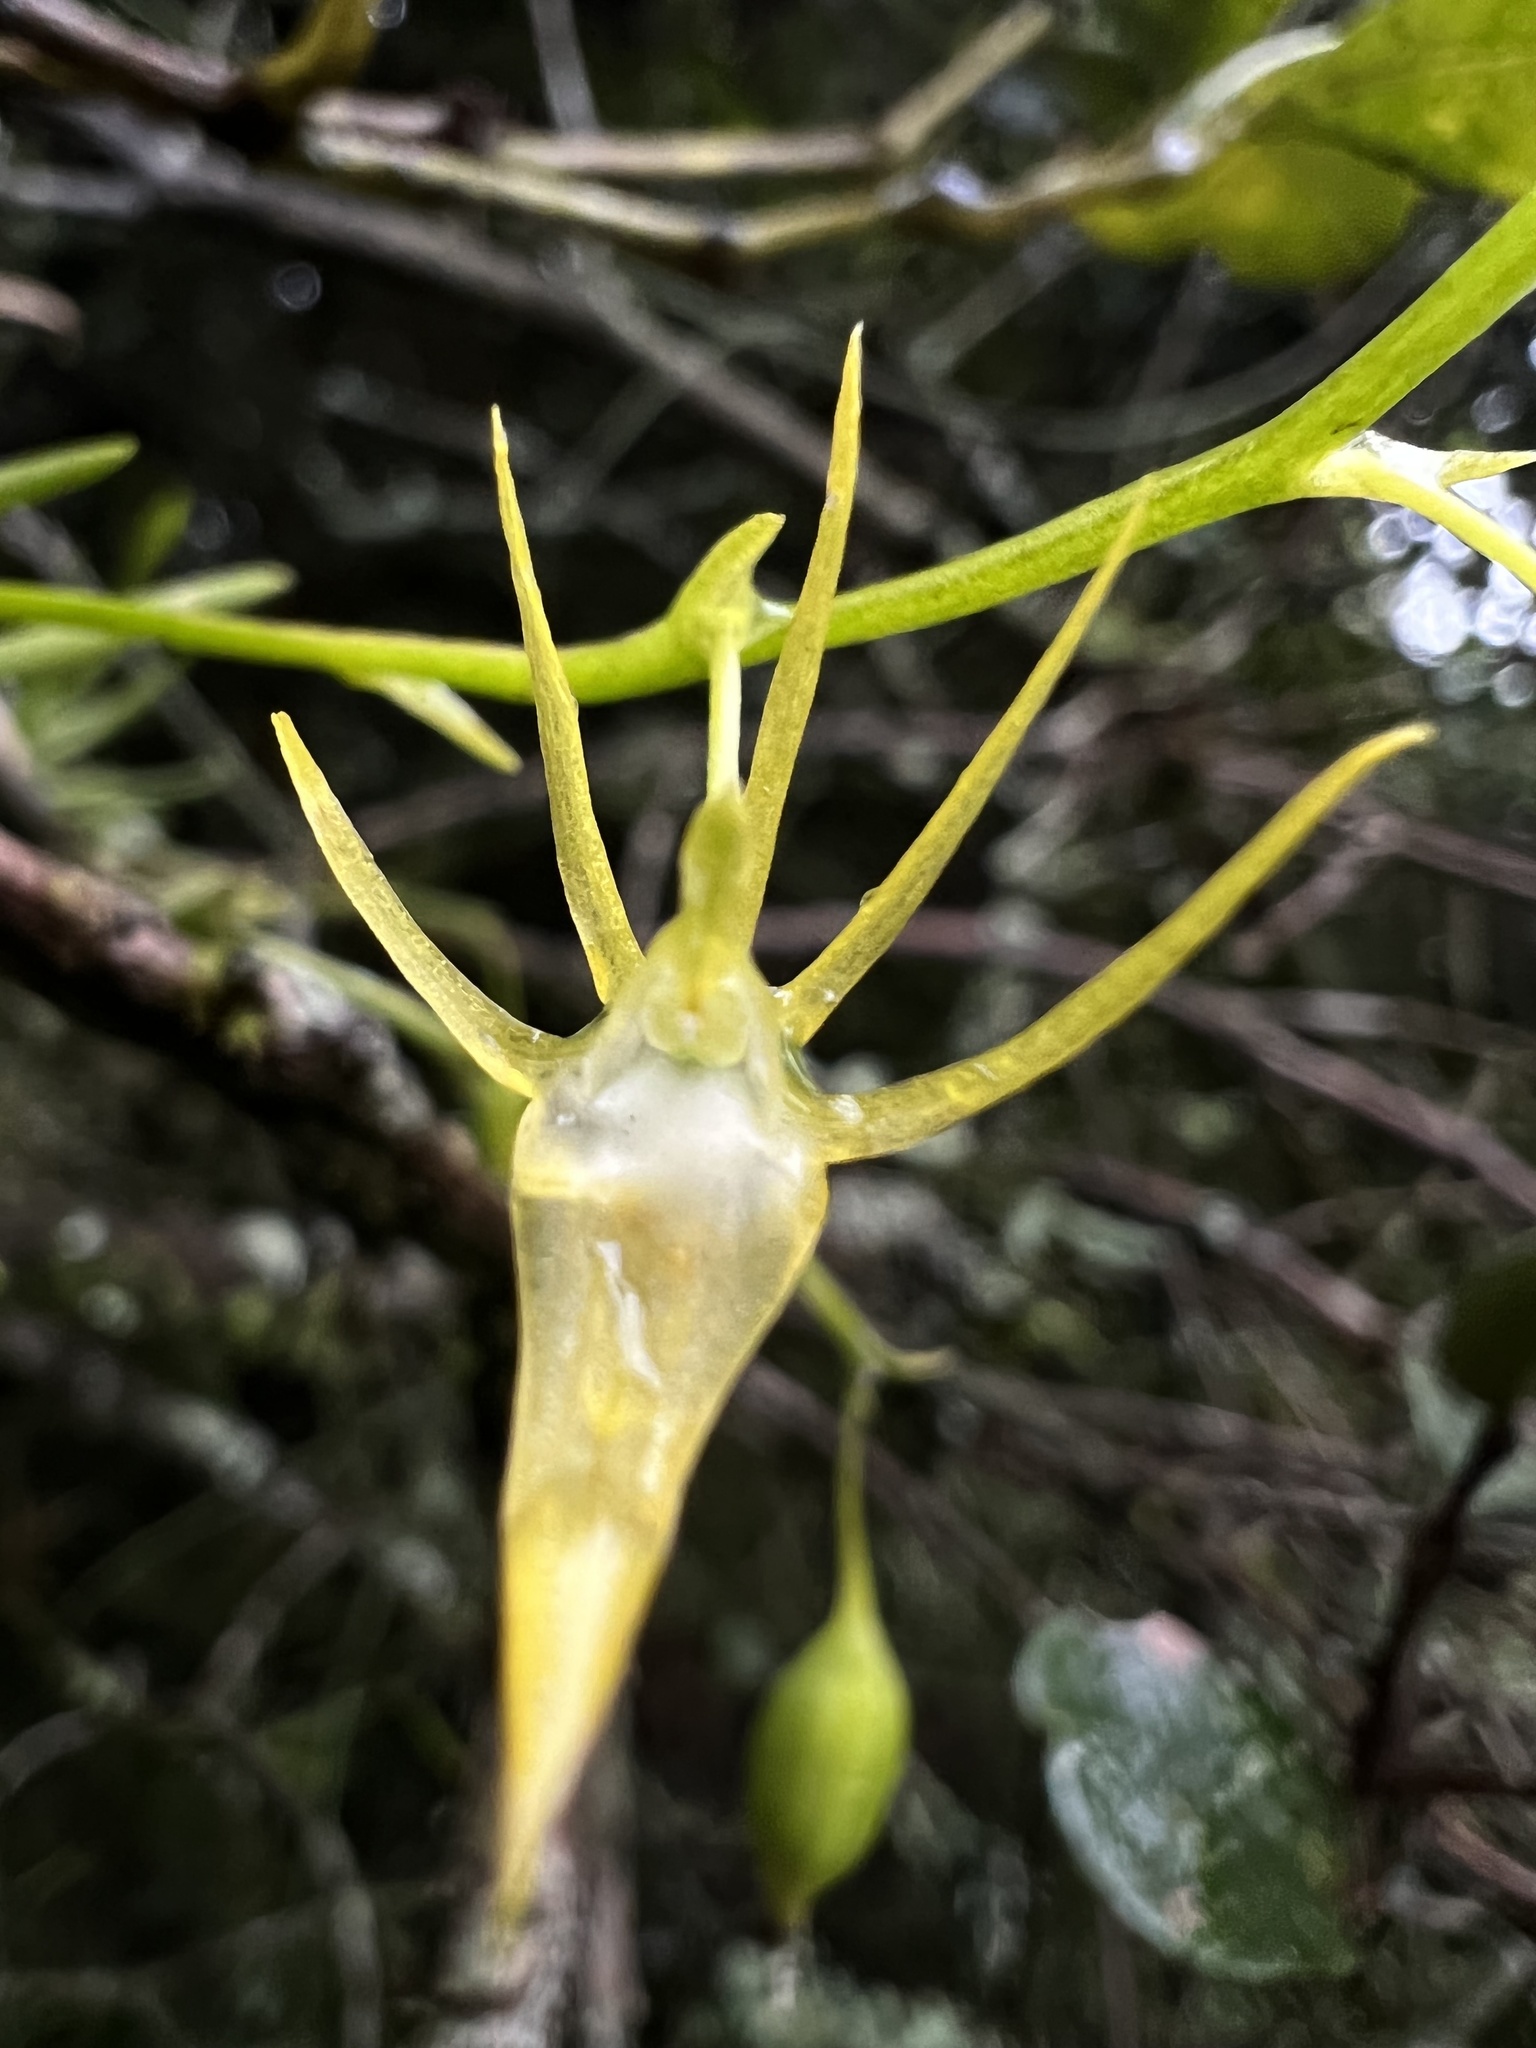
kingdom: Plantae
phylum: Tracheophyta
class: Liliopsida
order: Asparagales
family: Orchidaceae
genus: Hofmeisterella
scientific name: Hofmeisterella eumicroscopica
